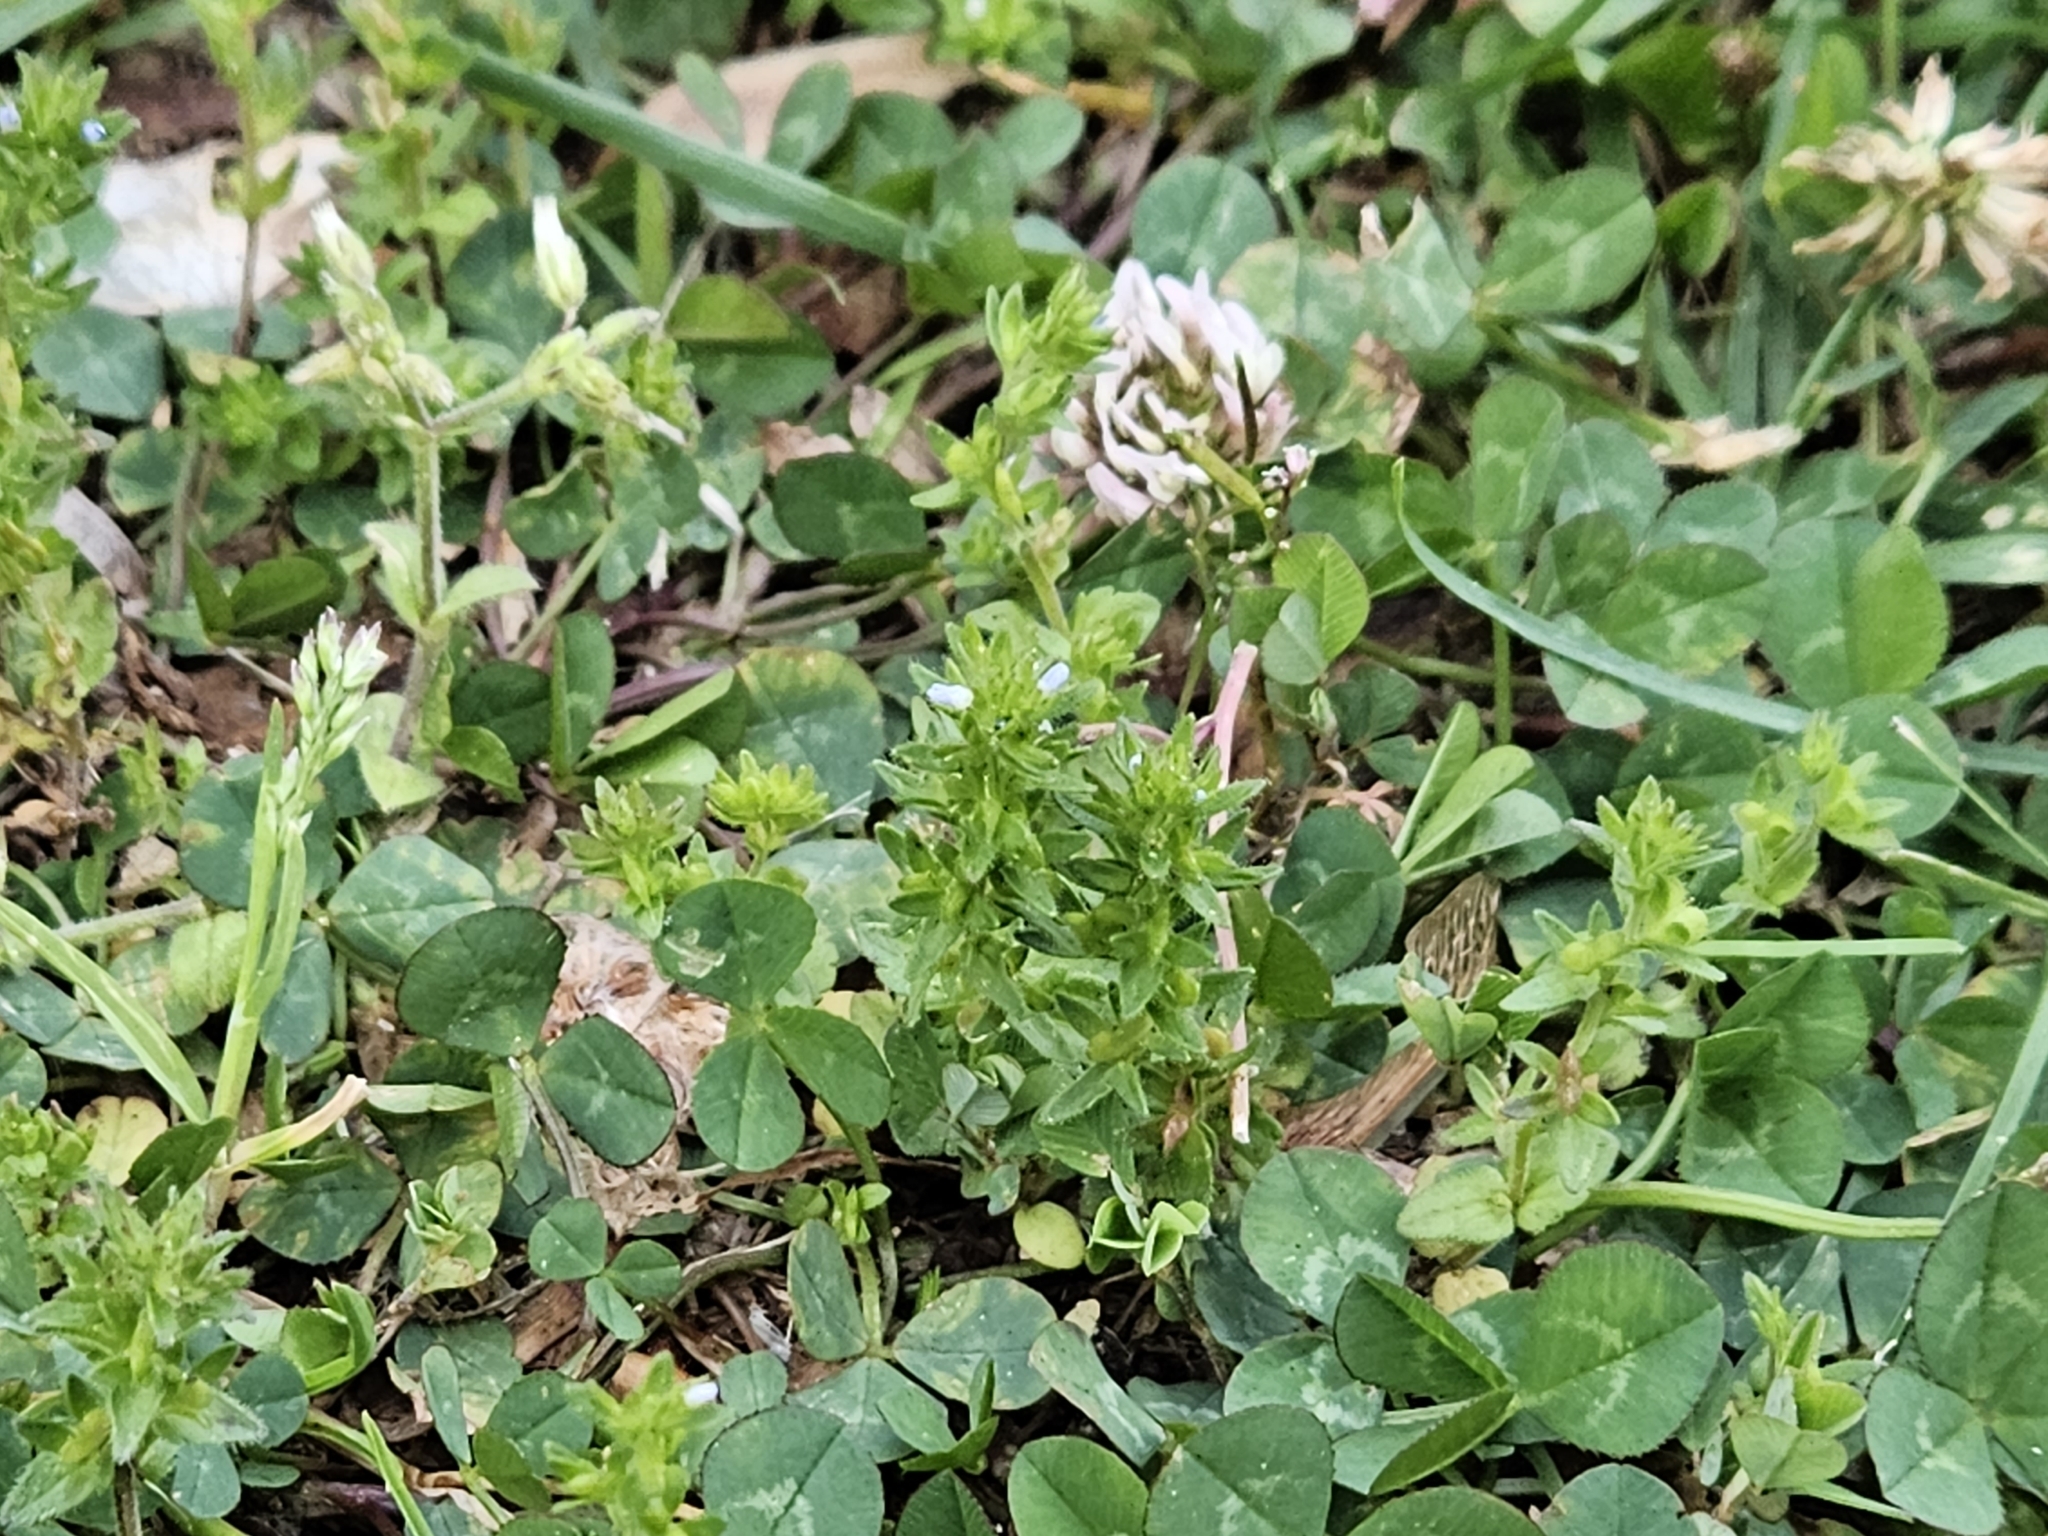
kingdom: Plantae
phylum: Tracheophyta
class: Magnoliopsida
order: Lamiales
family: Plantaginaceae
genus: Veronica
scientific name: Veronica arvensis
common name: Corn speedwell
